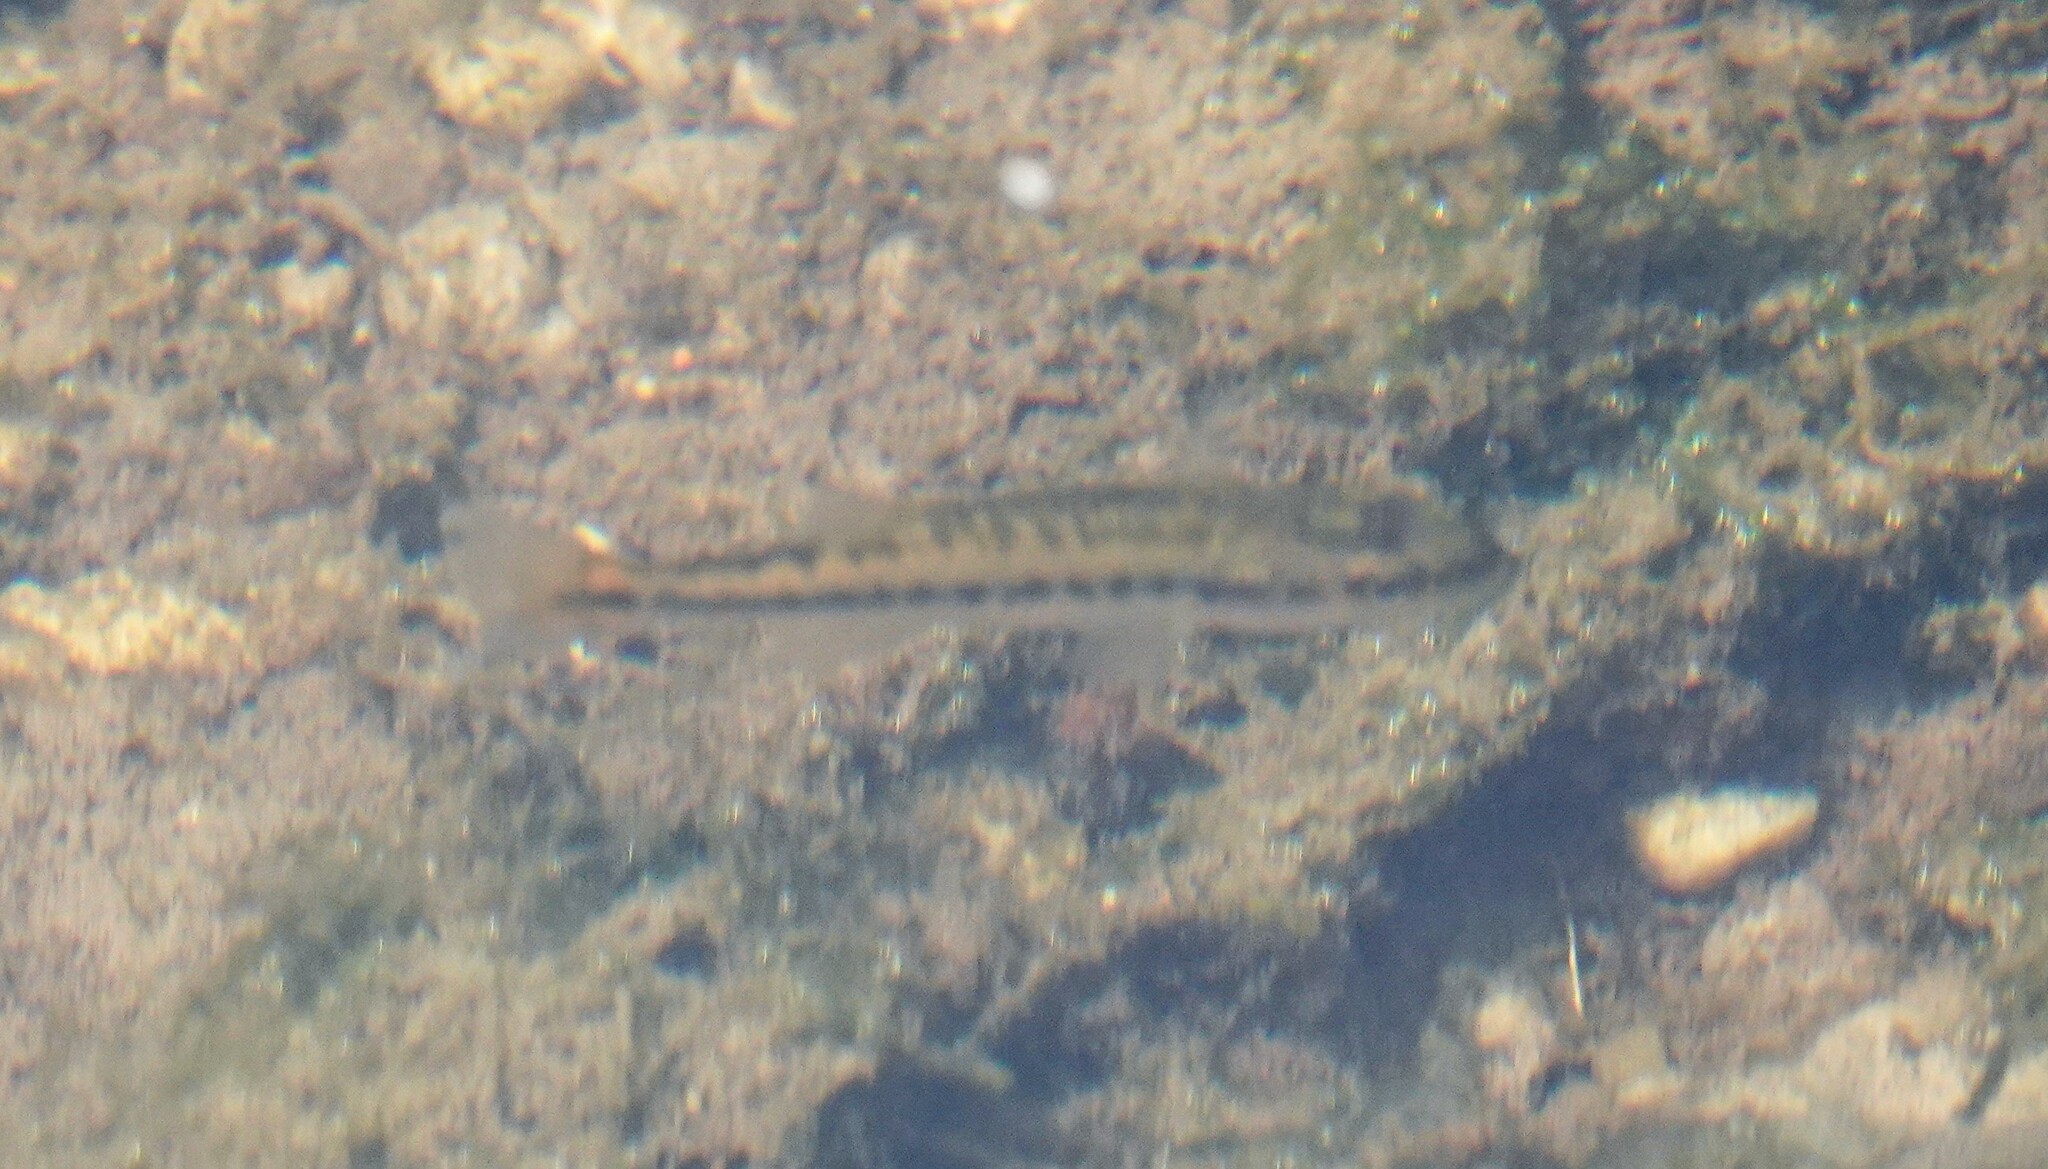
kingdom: Animalia
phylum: Chordata
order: Perciformes
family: Centrarchidae
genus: Micropterus
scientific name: Micropterus
